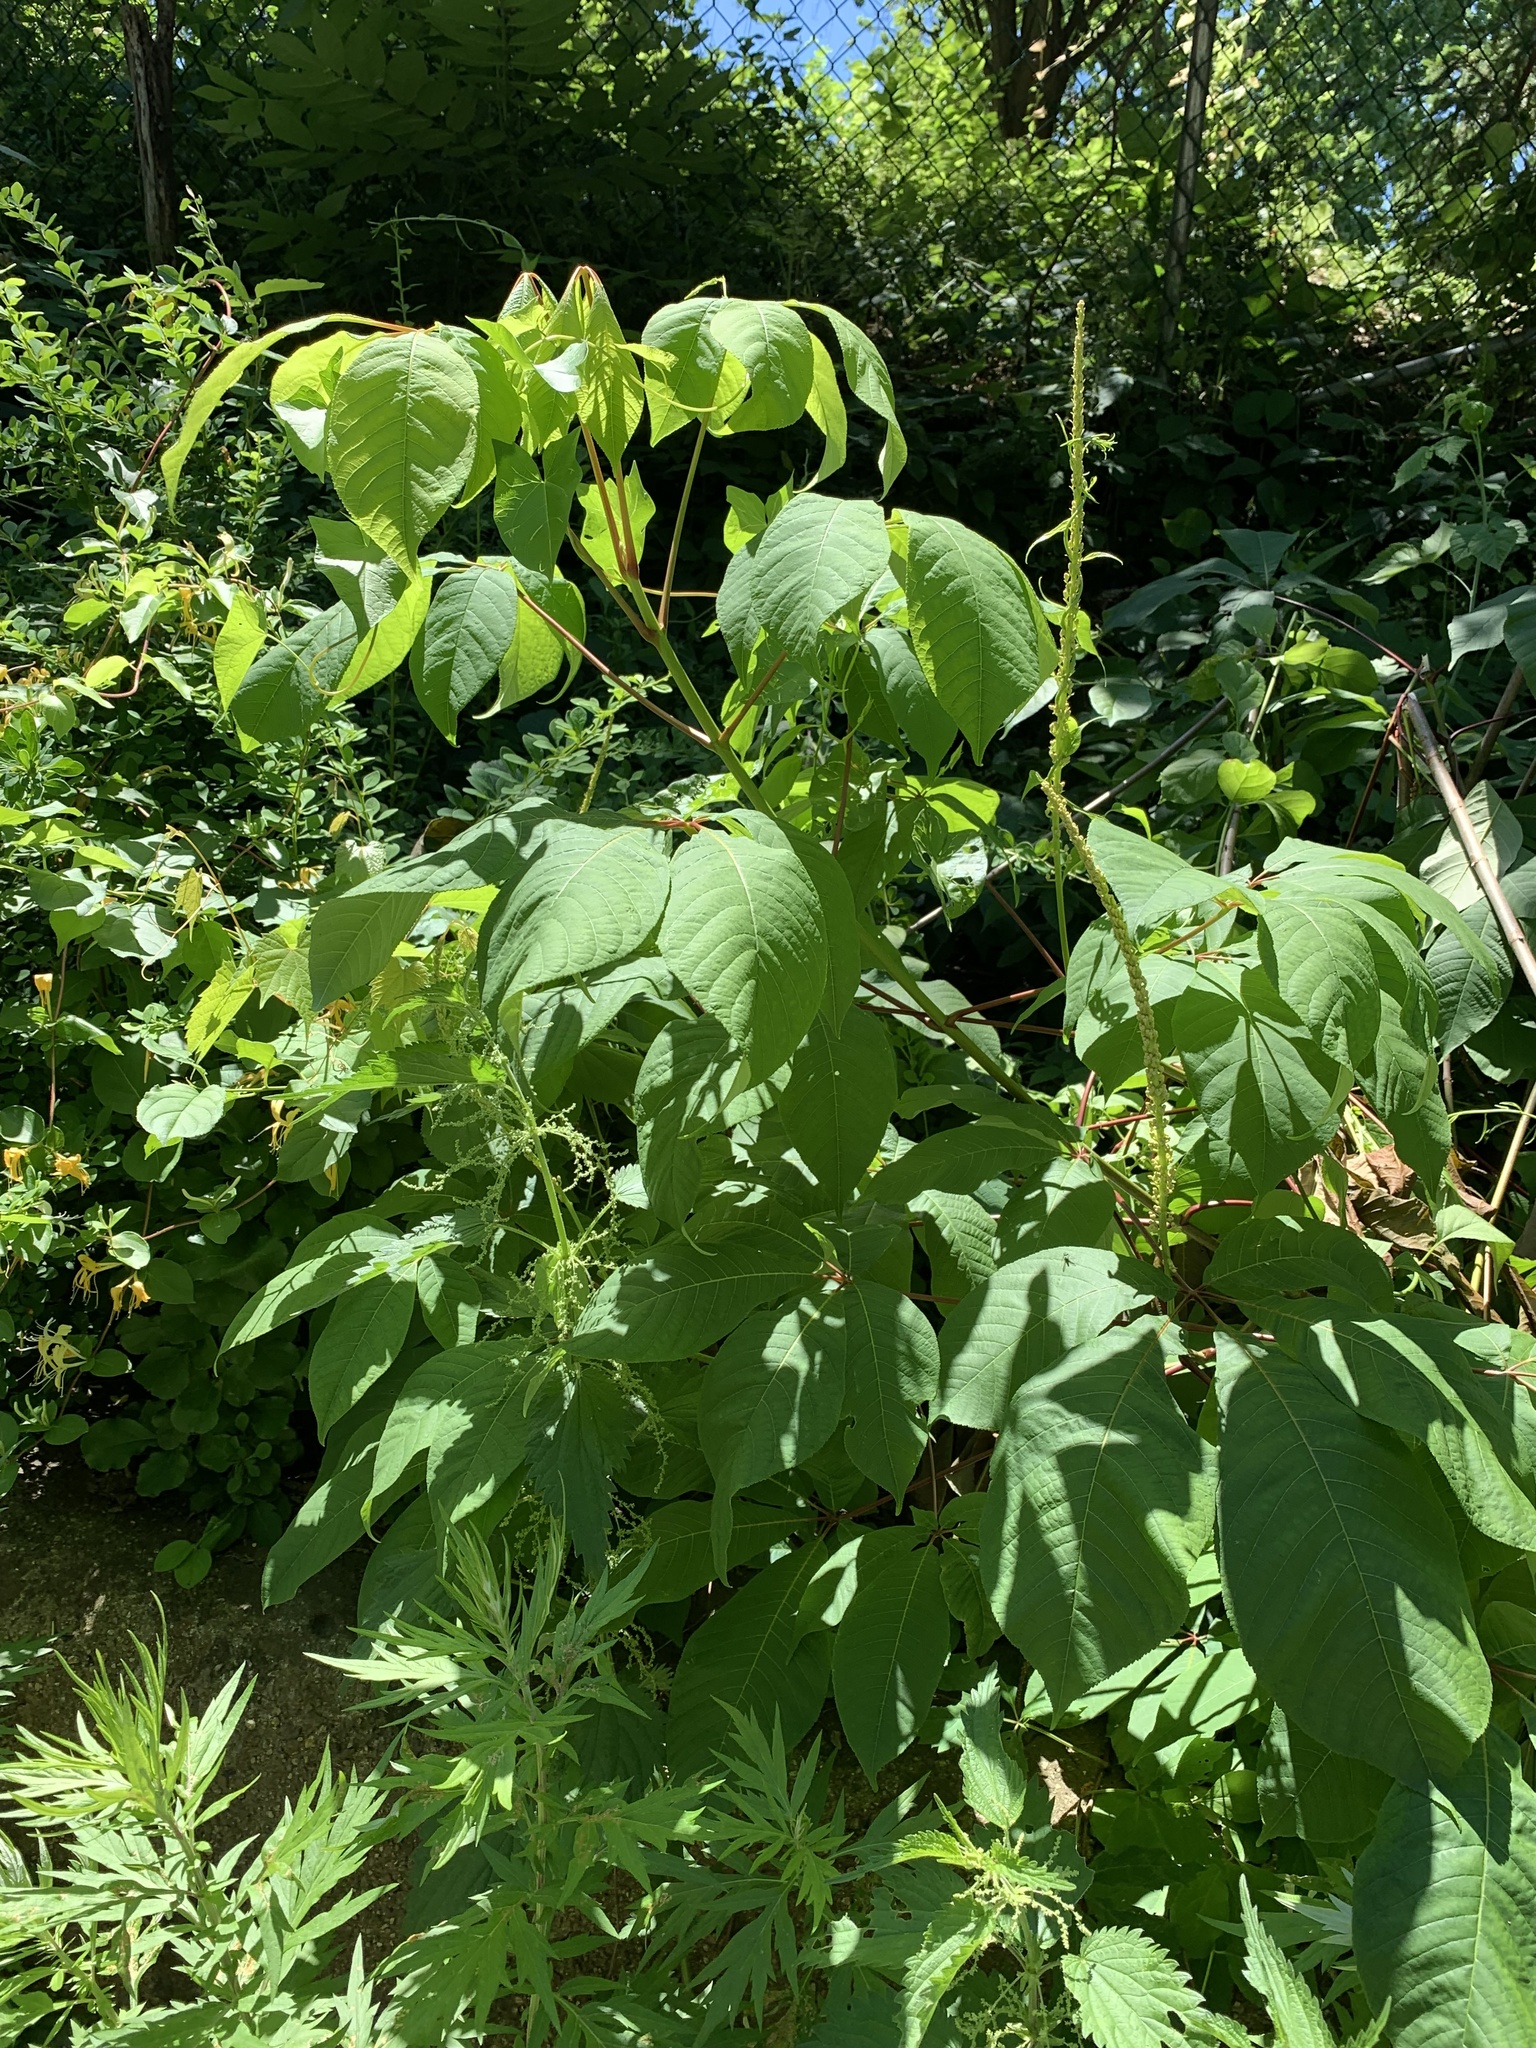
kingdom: Plantae
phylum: Tracheophyta
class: Magnoliopsida
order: Sapindales
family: Sapindaceae
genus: Aesculus
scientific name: Aesculus parviflora
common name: Bottlebrush buckeye
